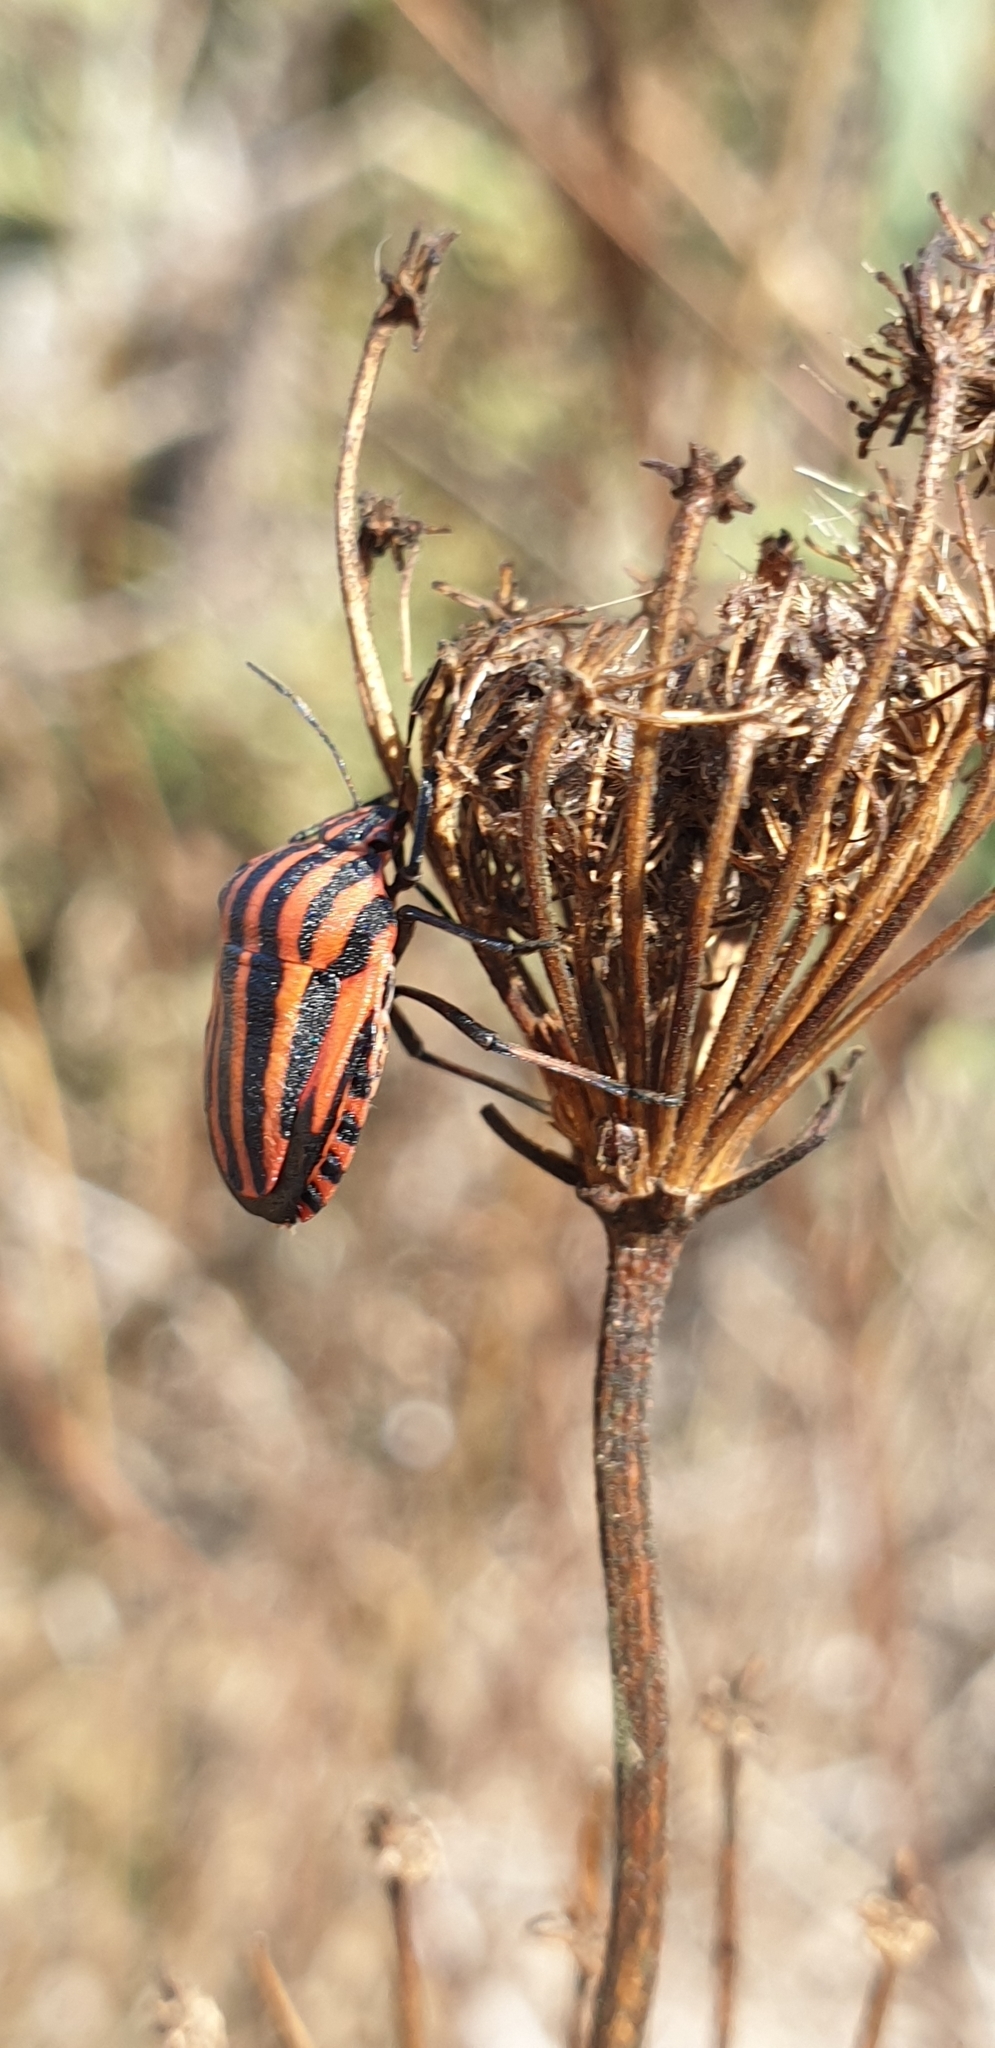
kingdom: Animalia
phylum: Arthropoda
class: Insecta
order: Hemiptera
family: Pentatomidae
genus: Graphosoma
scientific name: Graphosoma italicum
